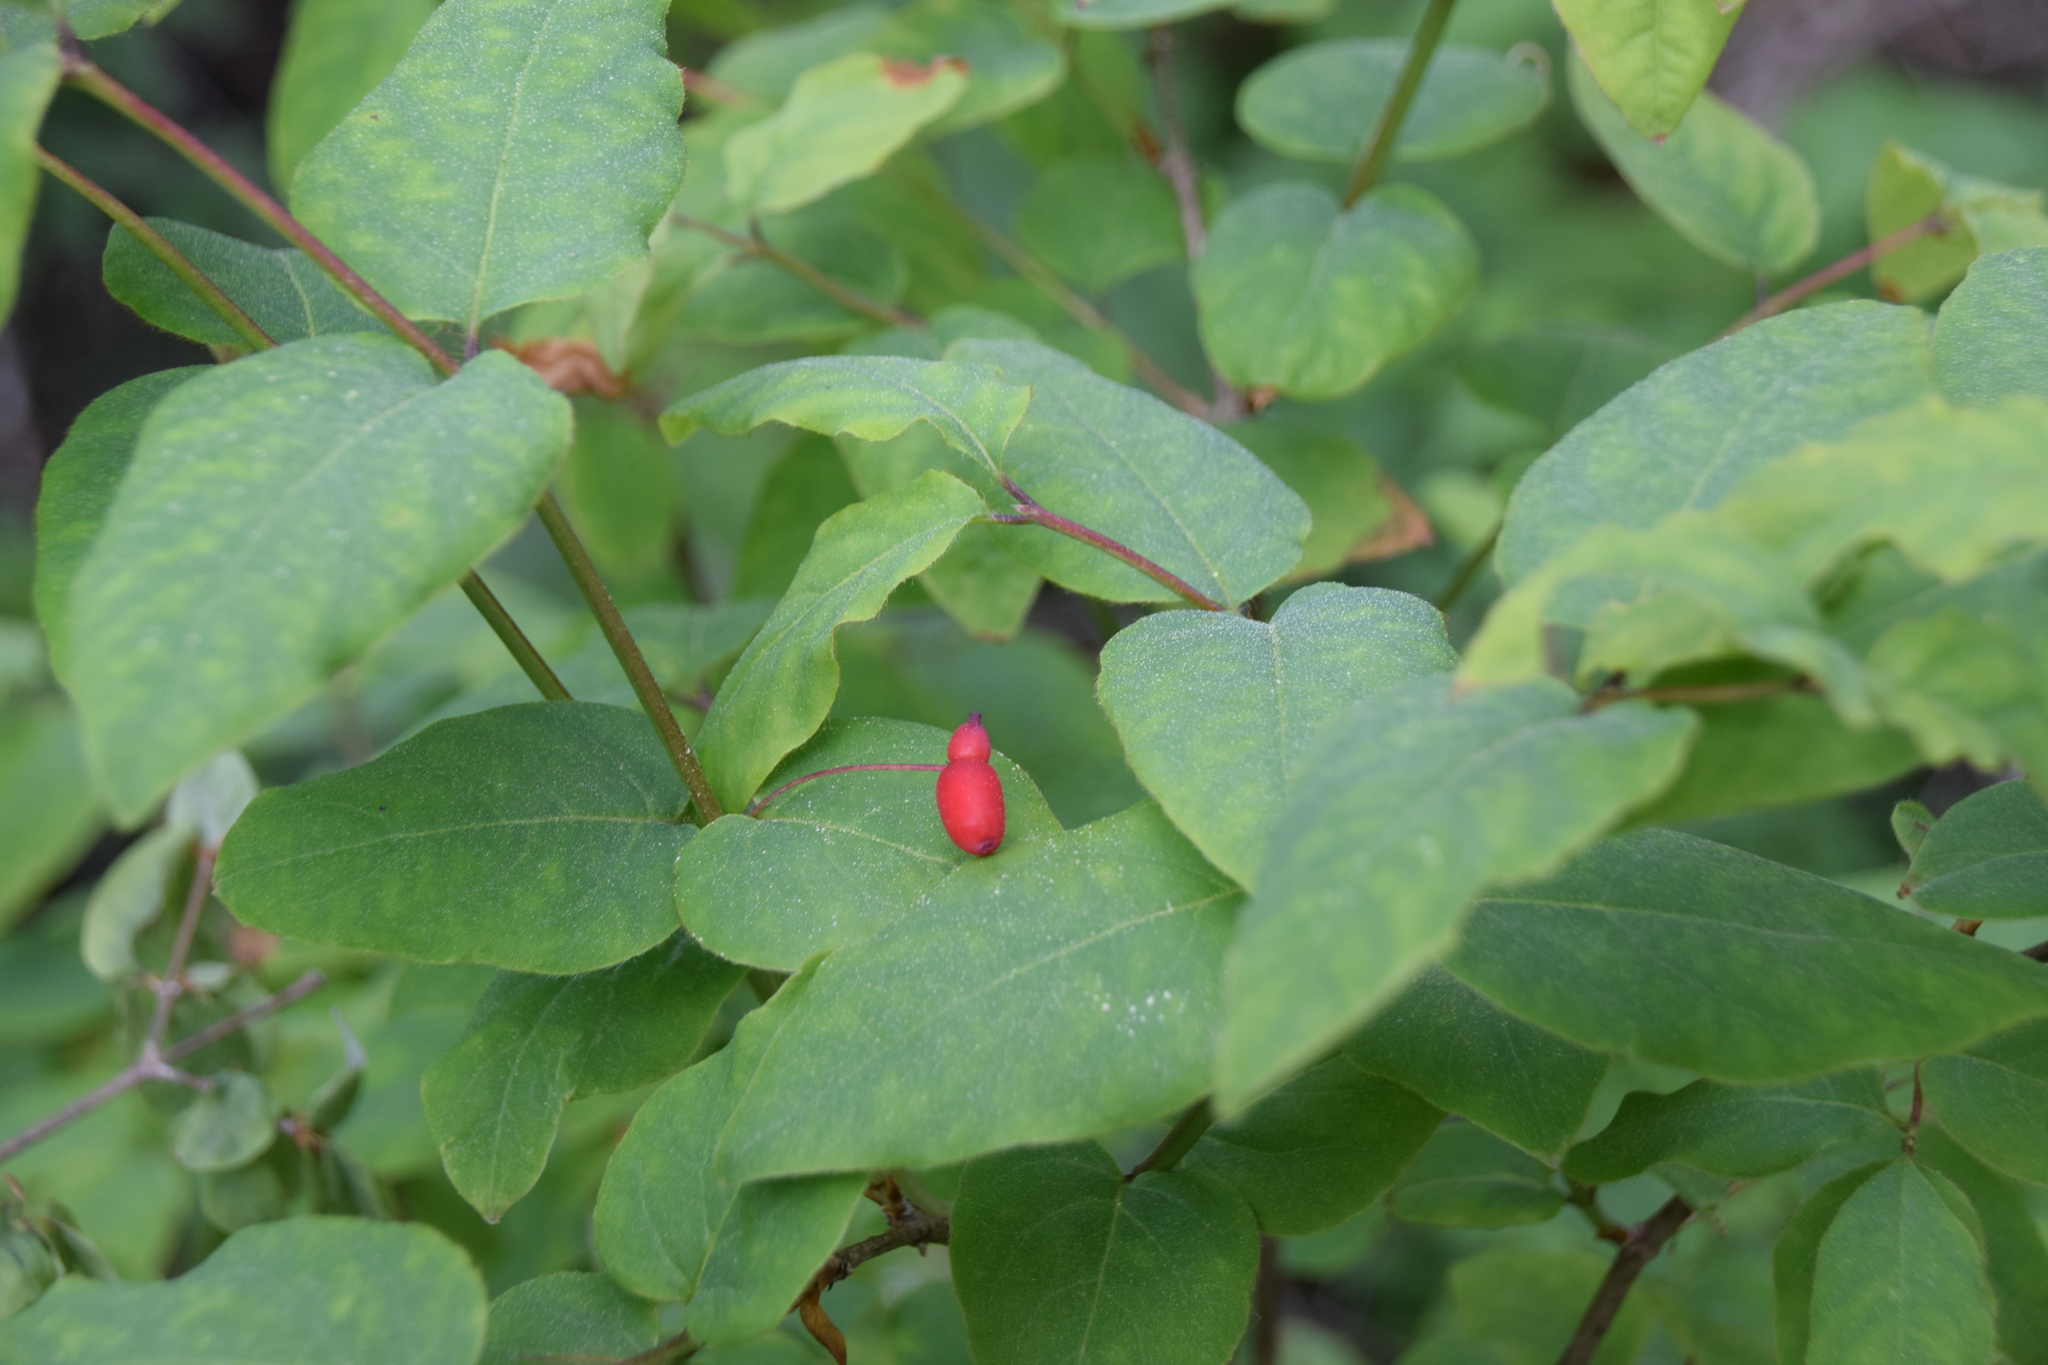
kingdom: Plantae
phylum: Tracheophyta
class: Magnoliopsida
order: Dipsacales
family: Caprifoliaceae
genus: Lonicera
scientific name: Lonicera canadensis
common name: American fly-honeysuckle
